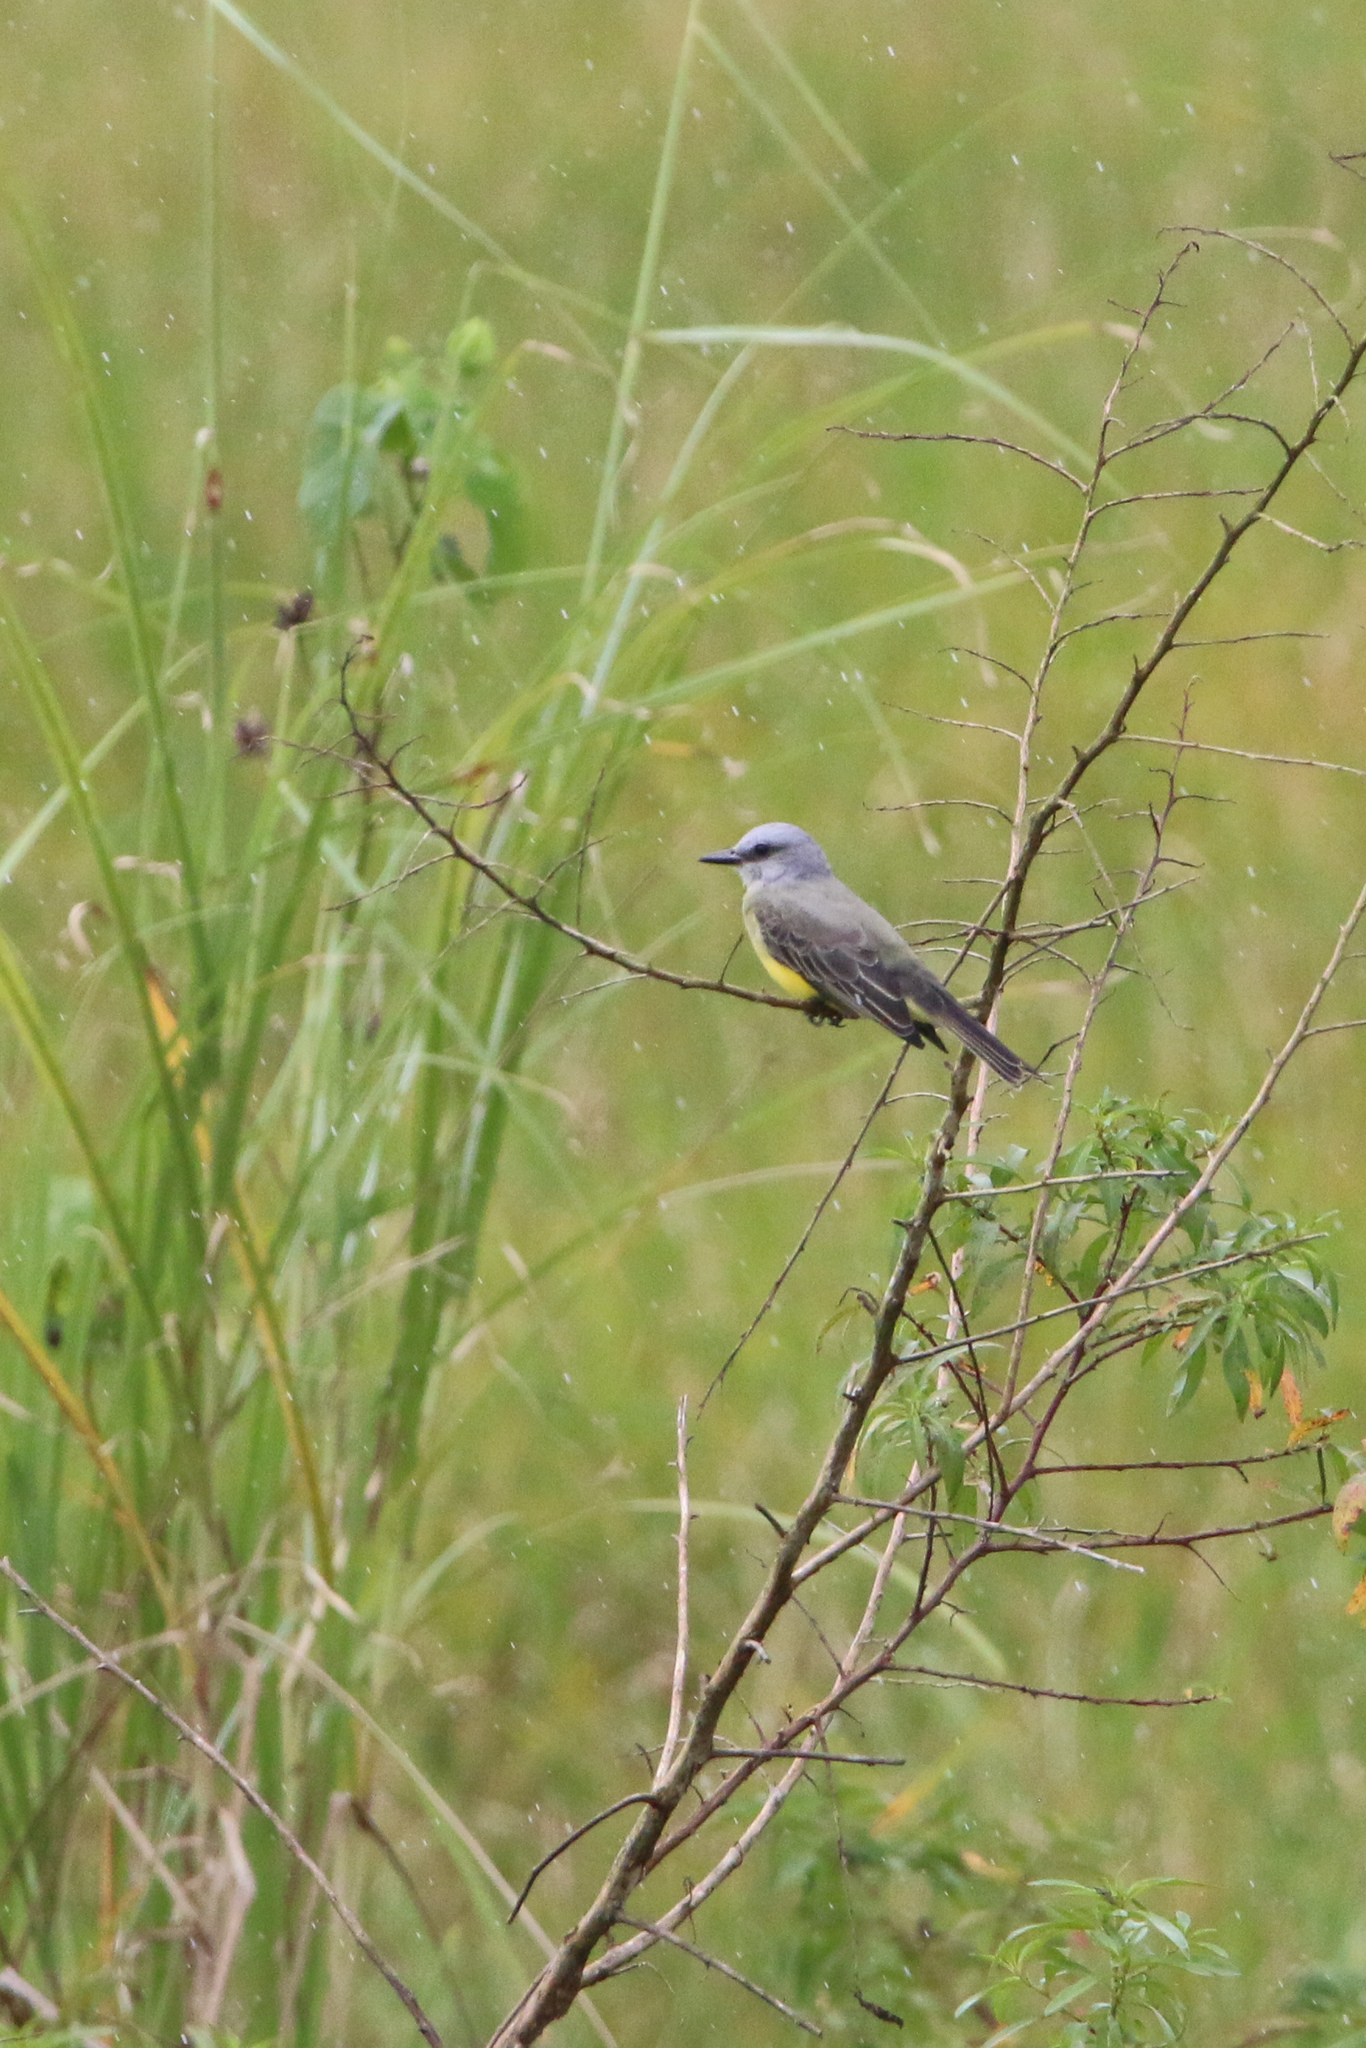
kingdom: Animalia
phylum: Chordata
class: Aves
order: Passeriformes
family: Tyrannidae
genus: Tyrannus
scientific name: Tyrannus melancholicus
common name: Tropical kingbird
